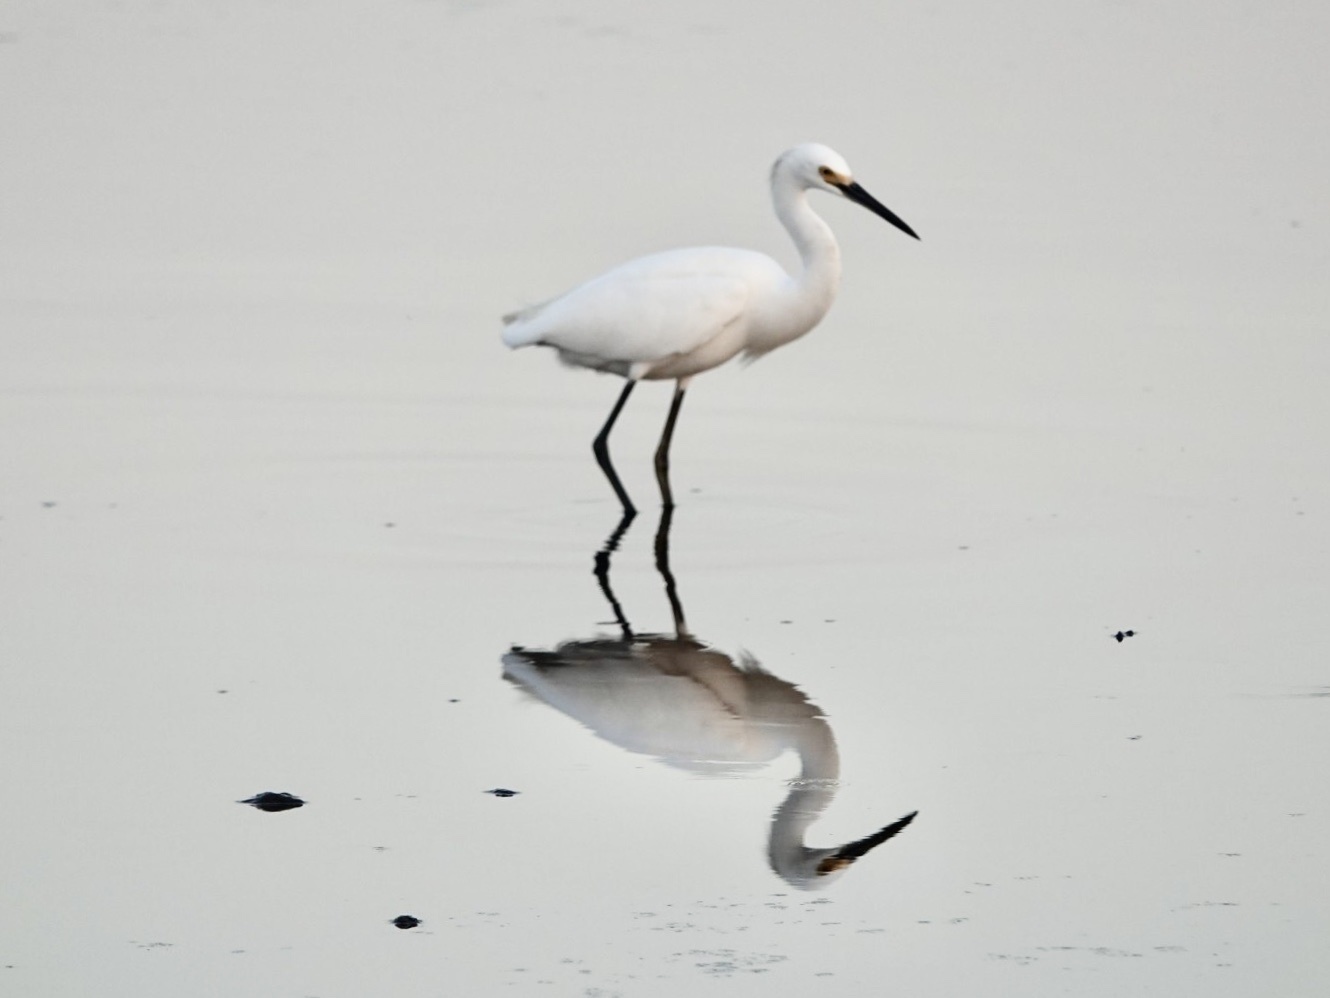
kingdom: Animalia
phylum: Chordata
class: Aves
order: Pelecaniformes
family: Ardeidae
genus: Egretta
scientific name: Egretta thula
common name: Snowy egret
